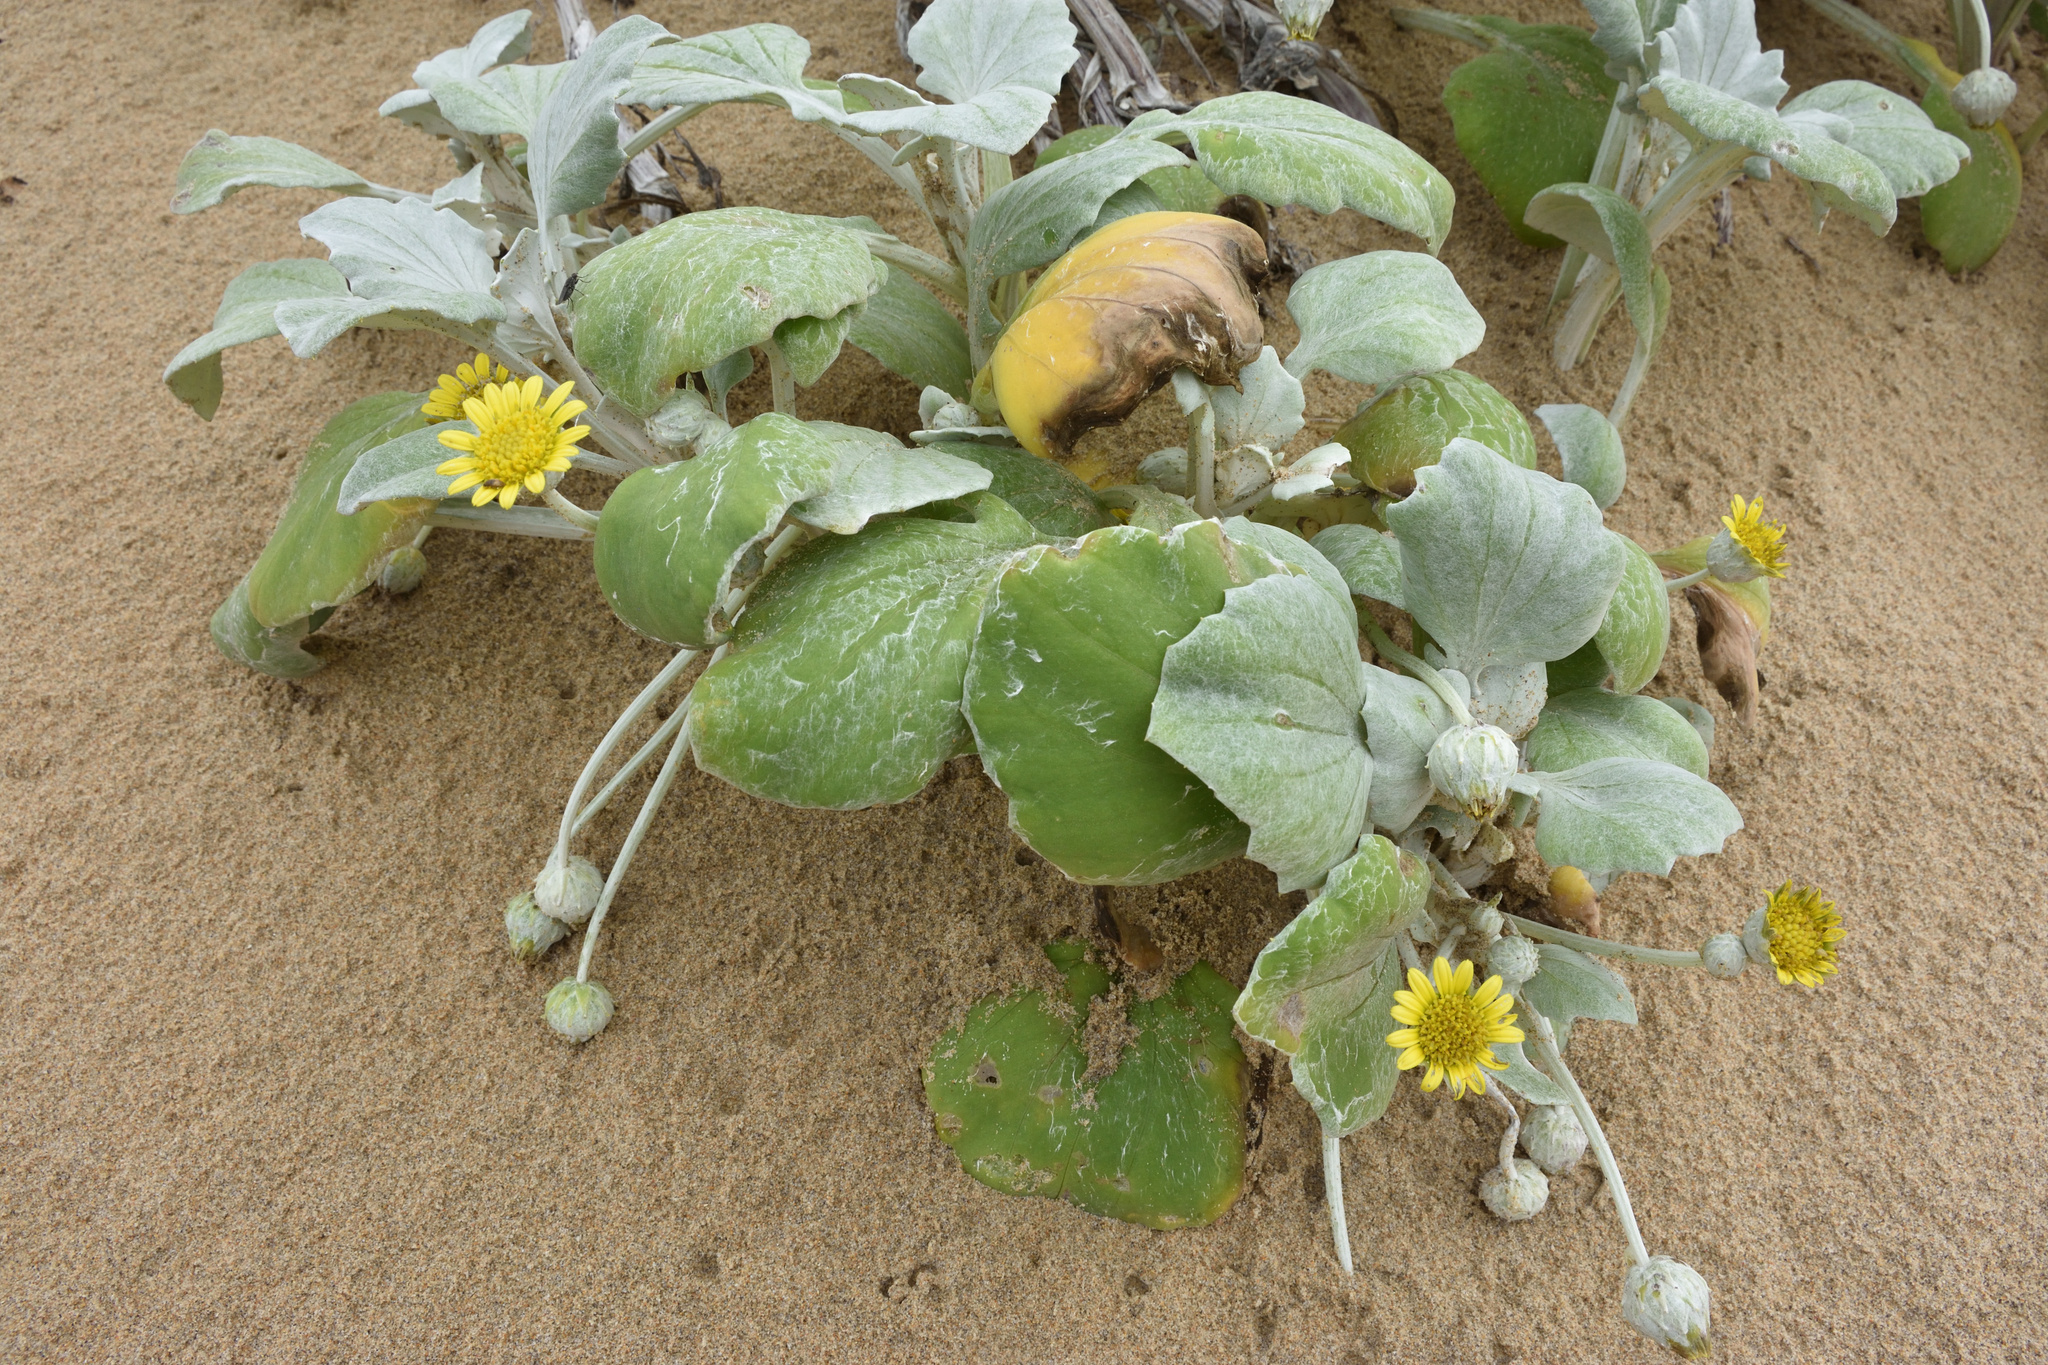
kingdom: Plantae
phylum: Tracheophyta
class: Magnoliopsida
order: Asterales
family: Asteraceae
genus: Arctotheca
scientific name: Arctotheca populifolia
